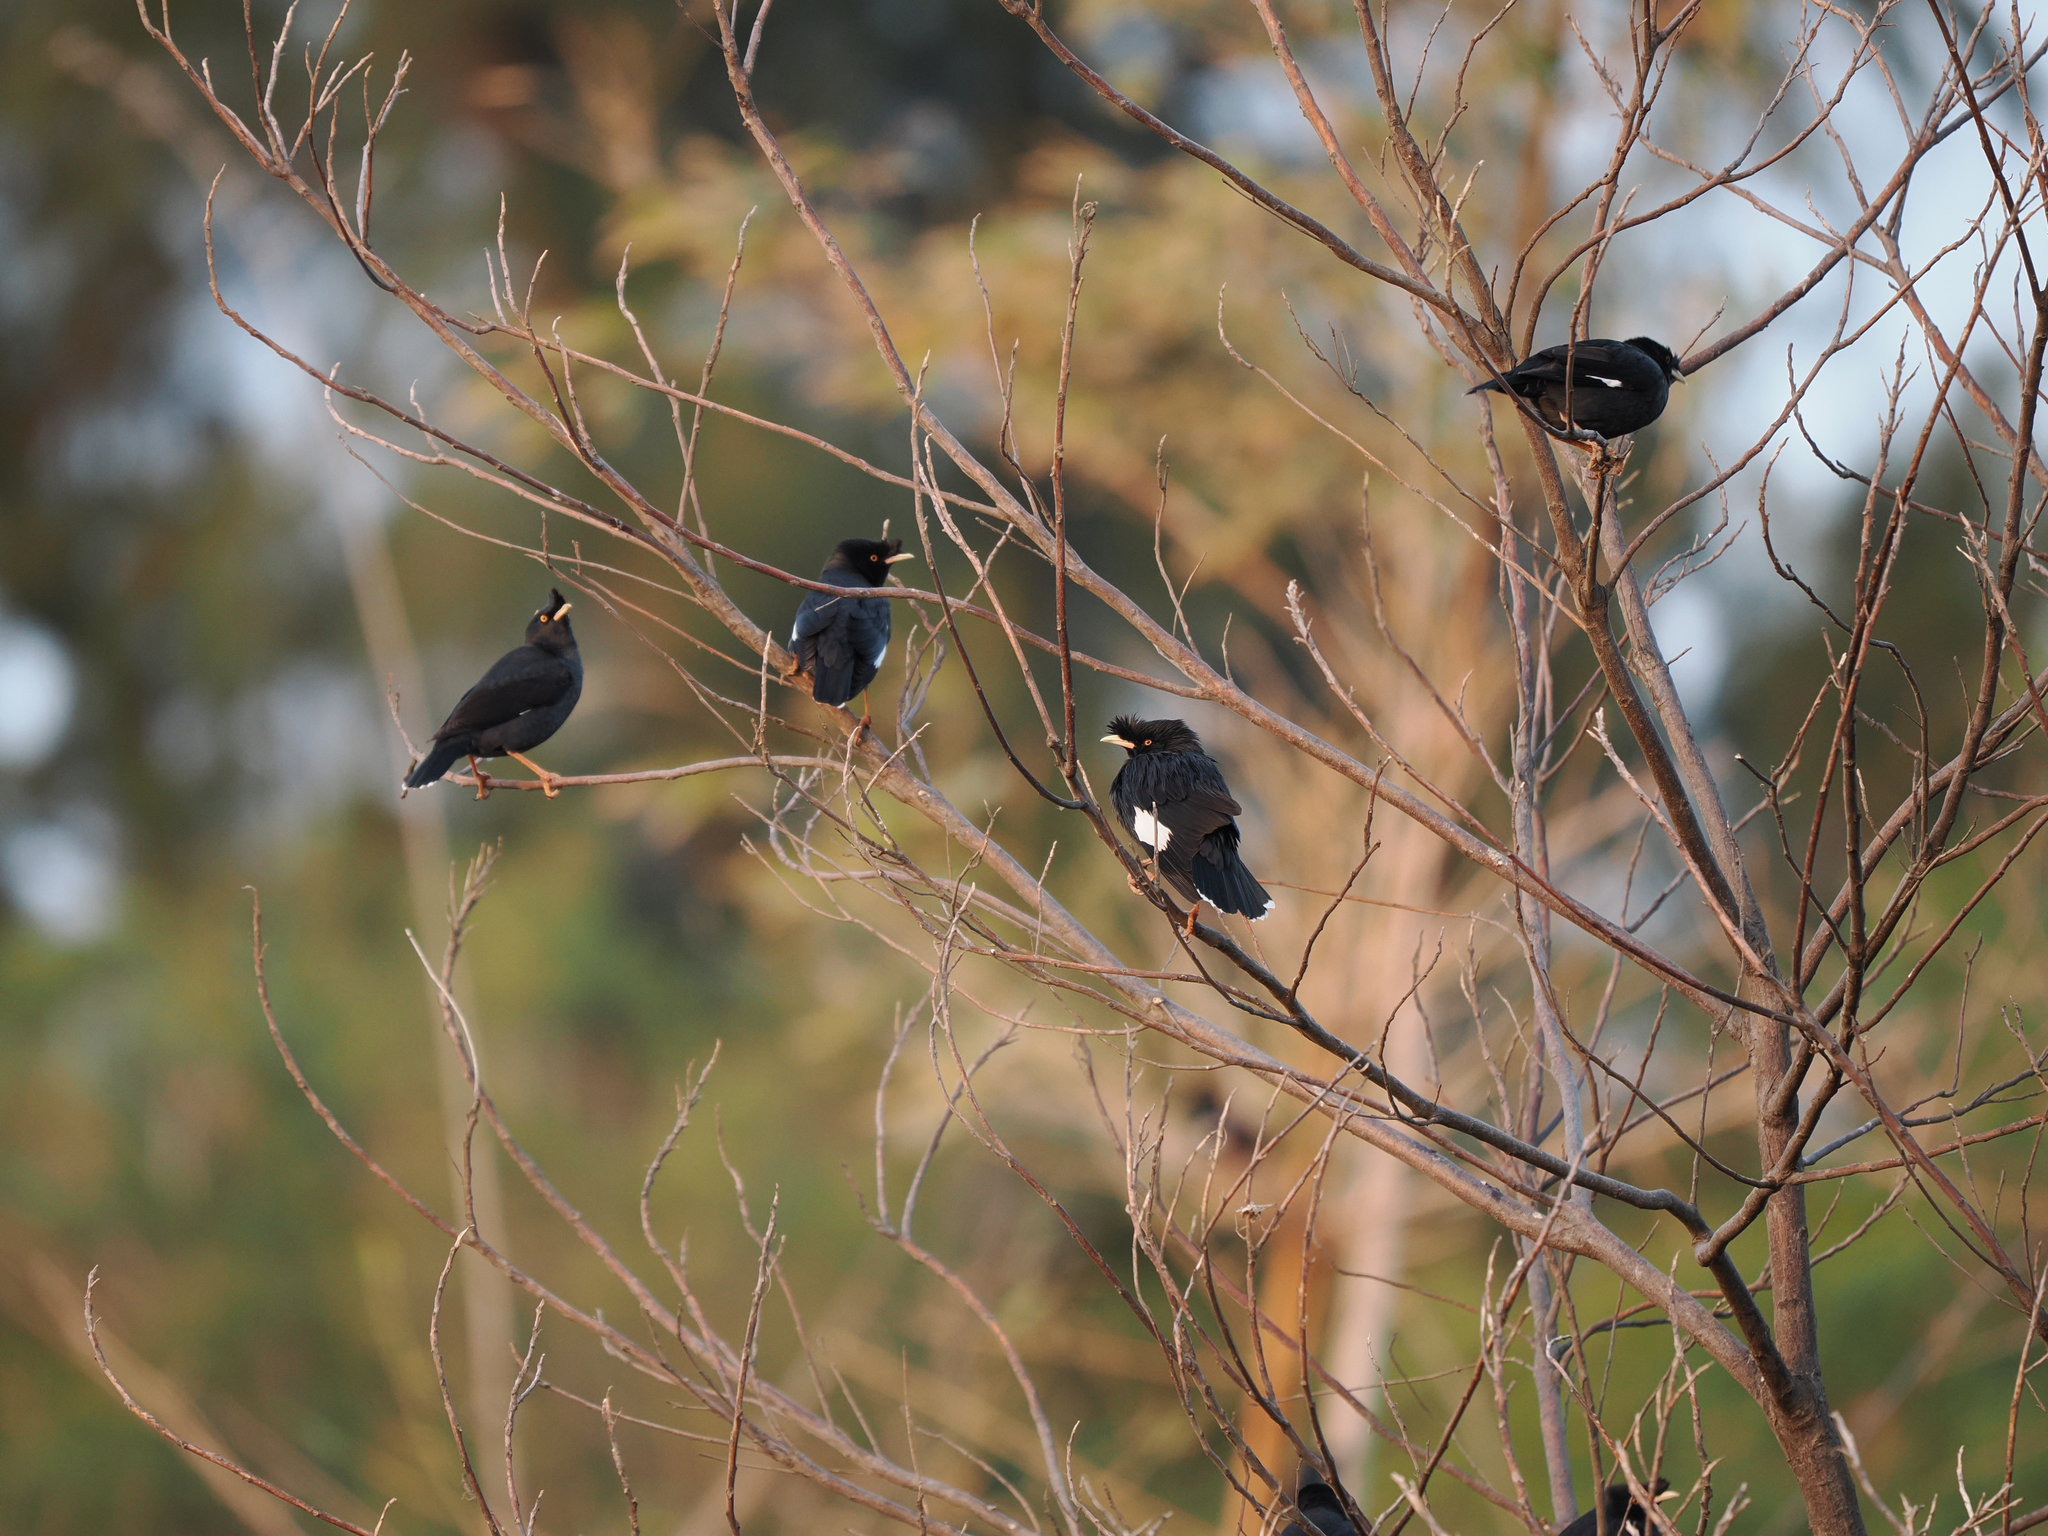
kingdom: Animalia
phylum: Chordata
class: Aves
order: Passeriformes
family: Sturnidae
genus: Acridotheres
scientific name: Acridotheres cristatellus
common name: Crested myna
